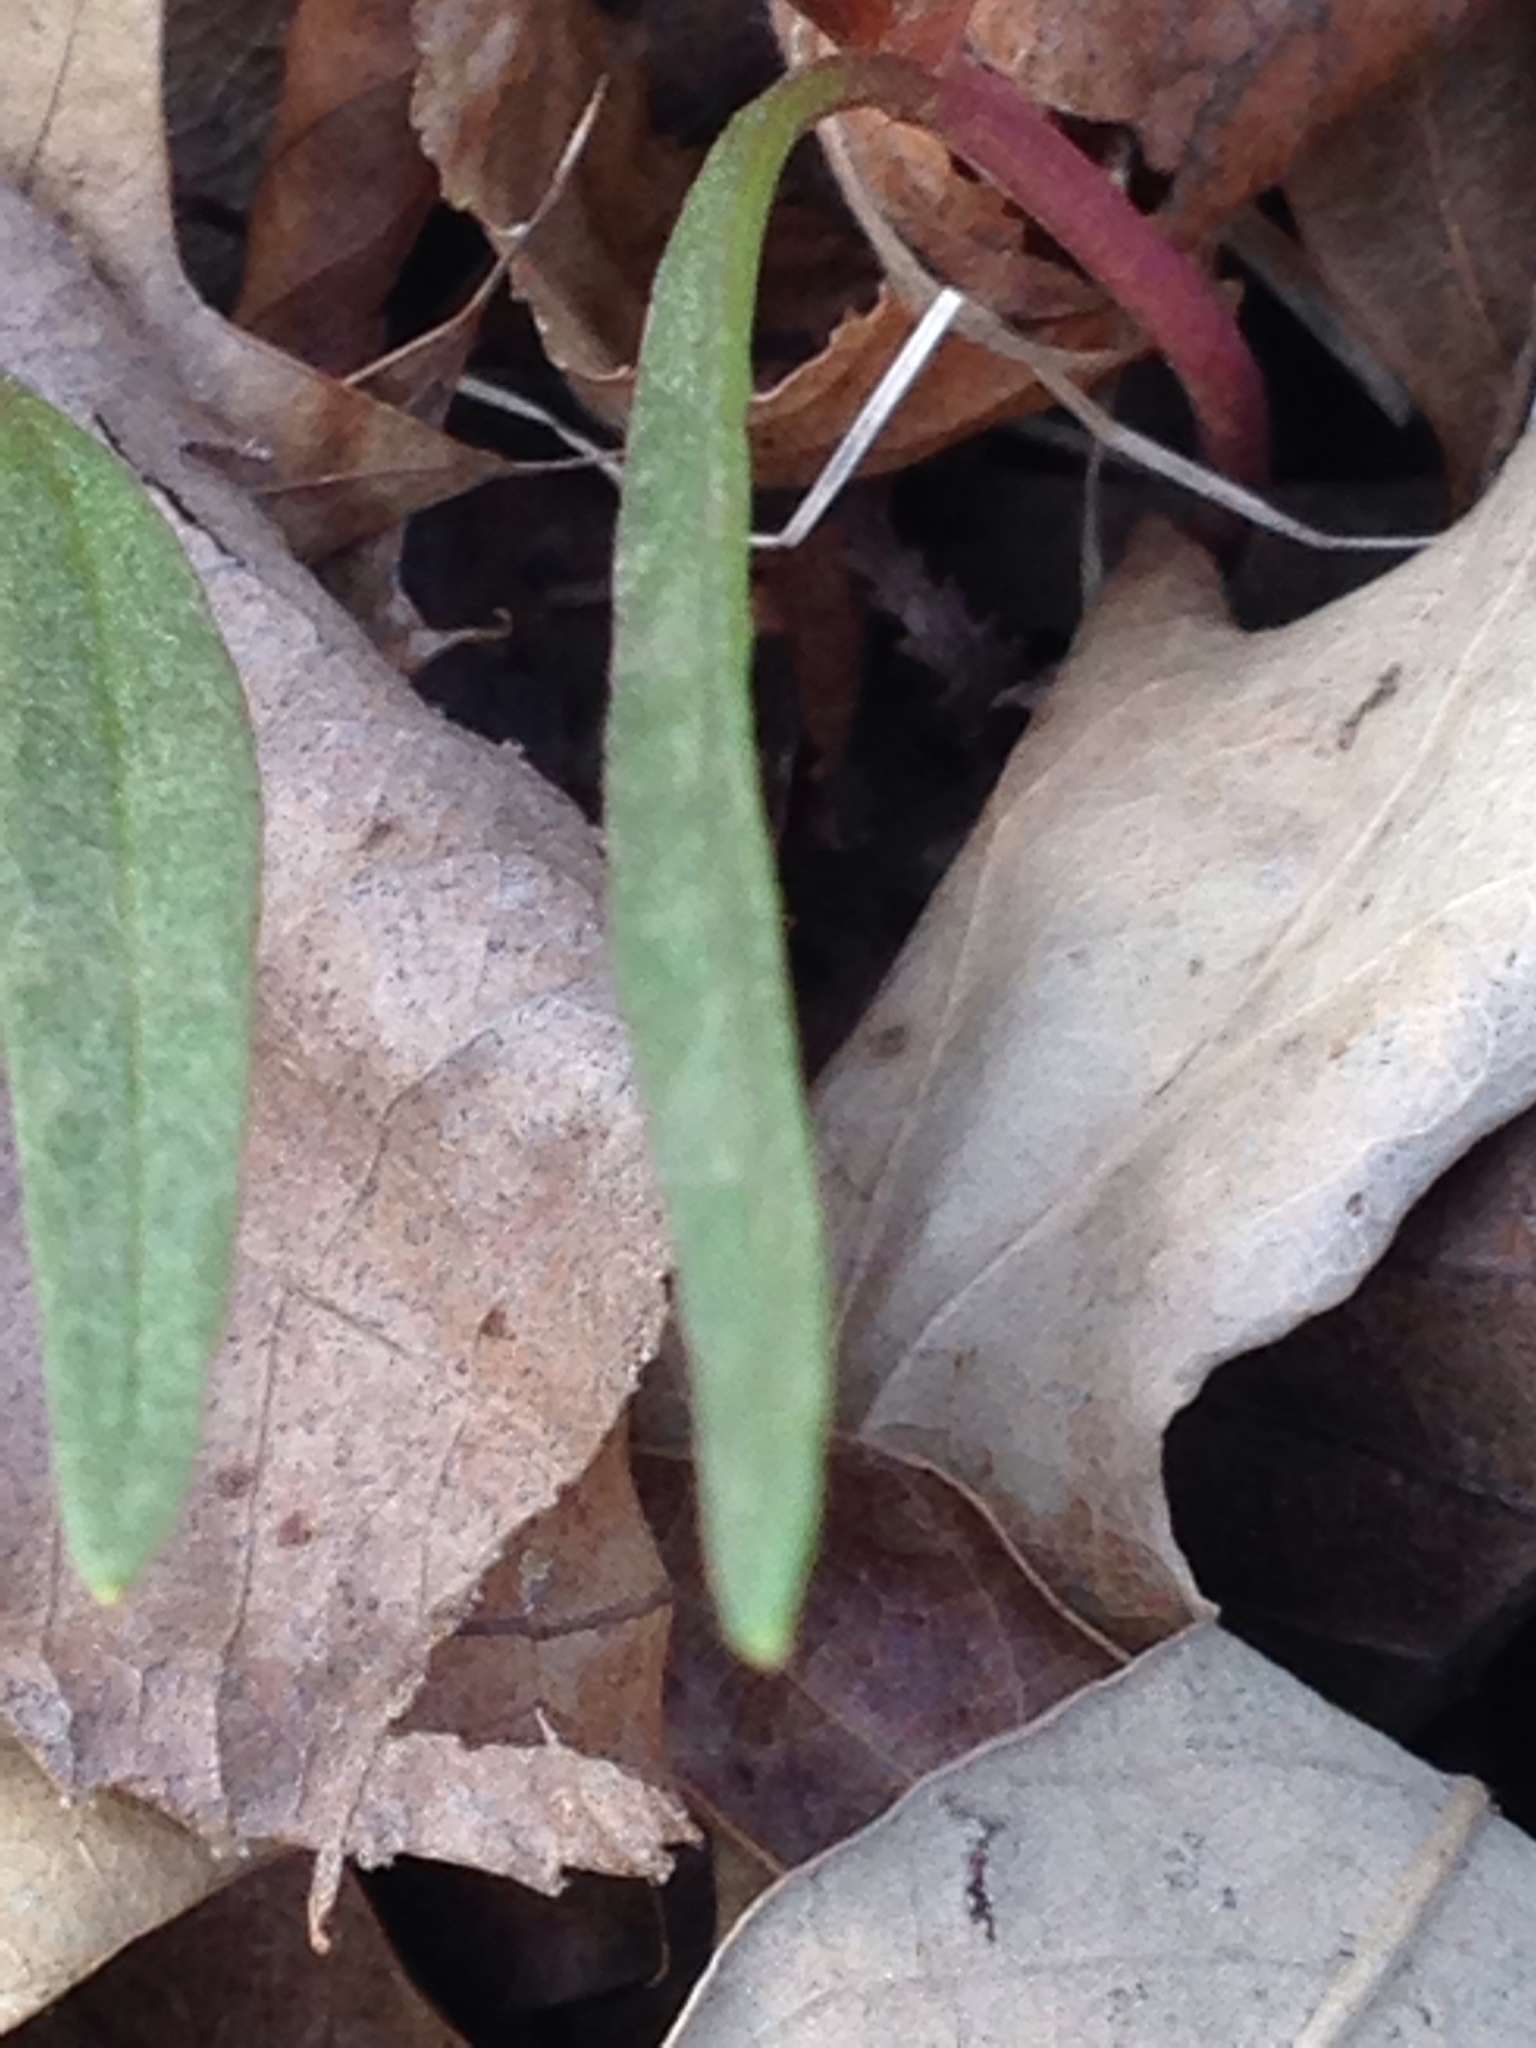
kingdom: Plantae
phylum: Tracheophyta
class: Magnoliopsida
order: Caryophyllales
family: Montiaceae
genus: Claytonia
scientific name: Claytonia virginica
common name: Virginia springbeauty
